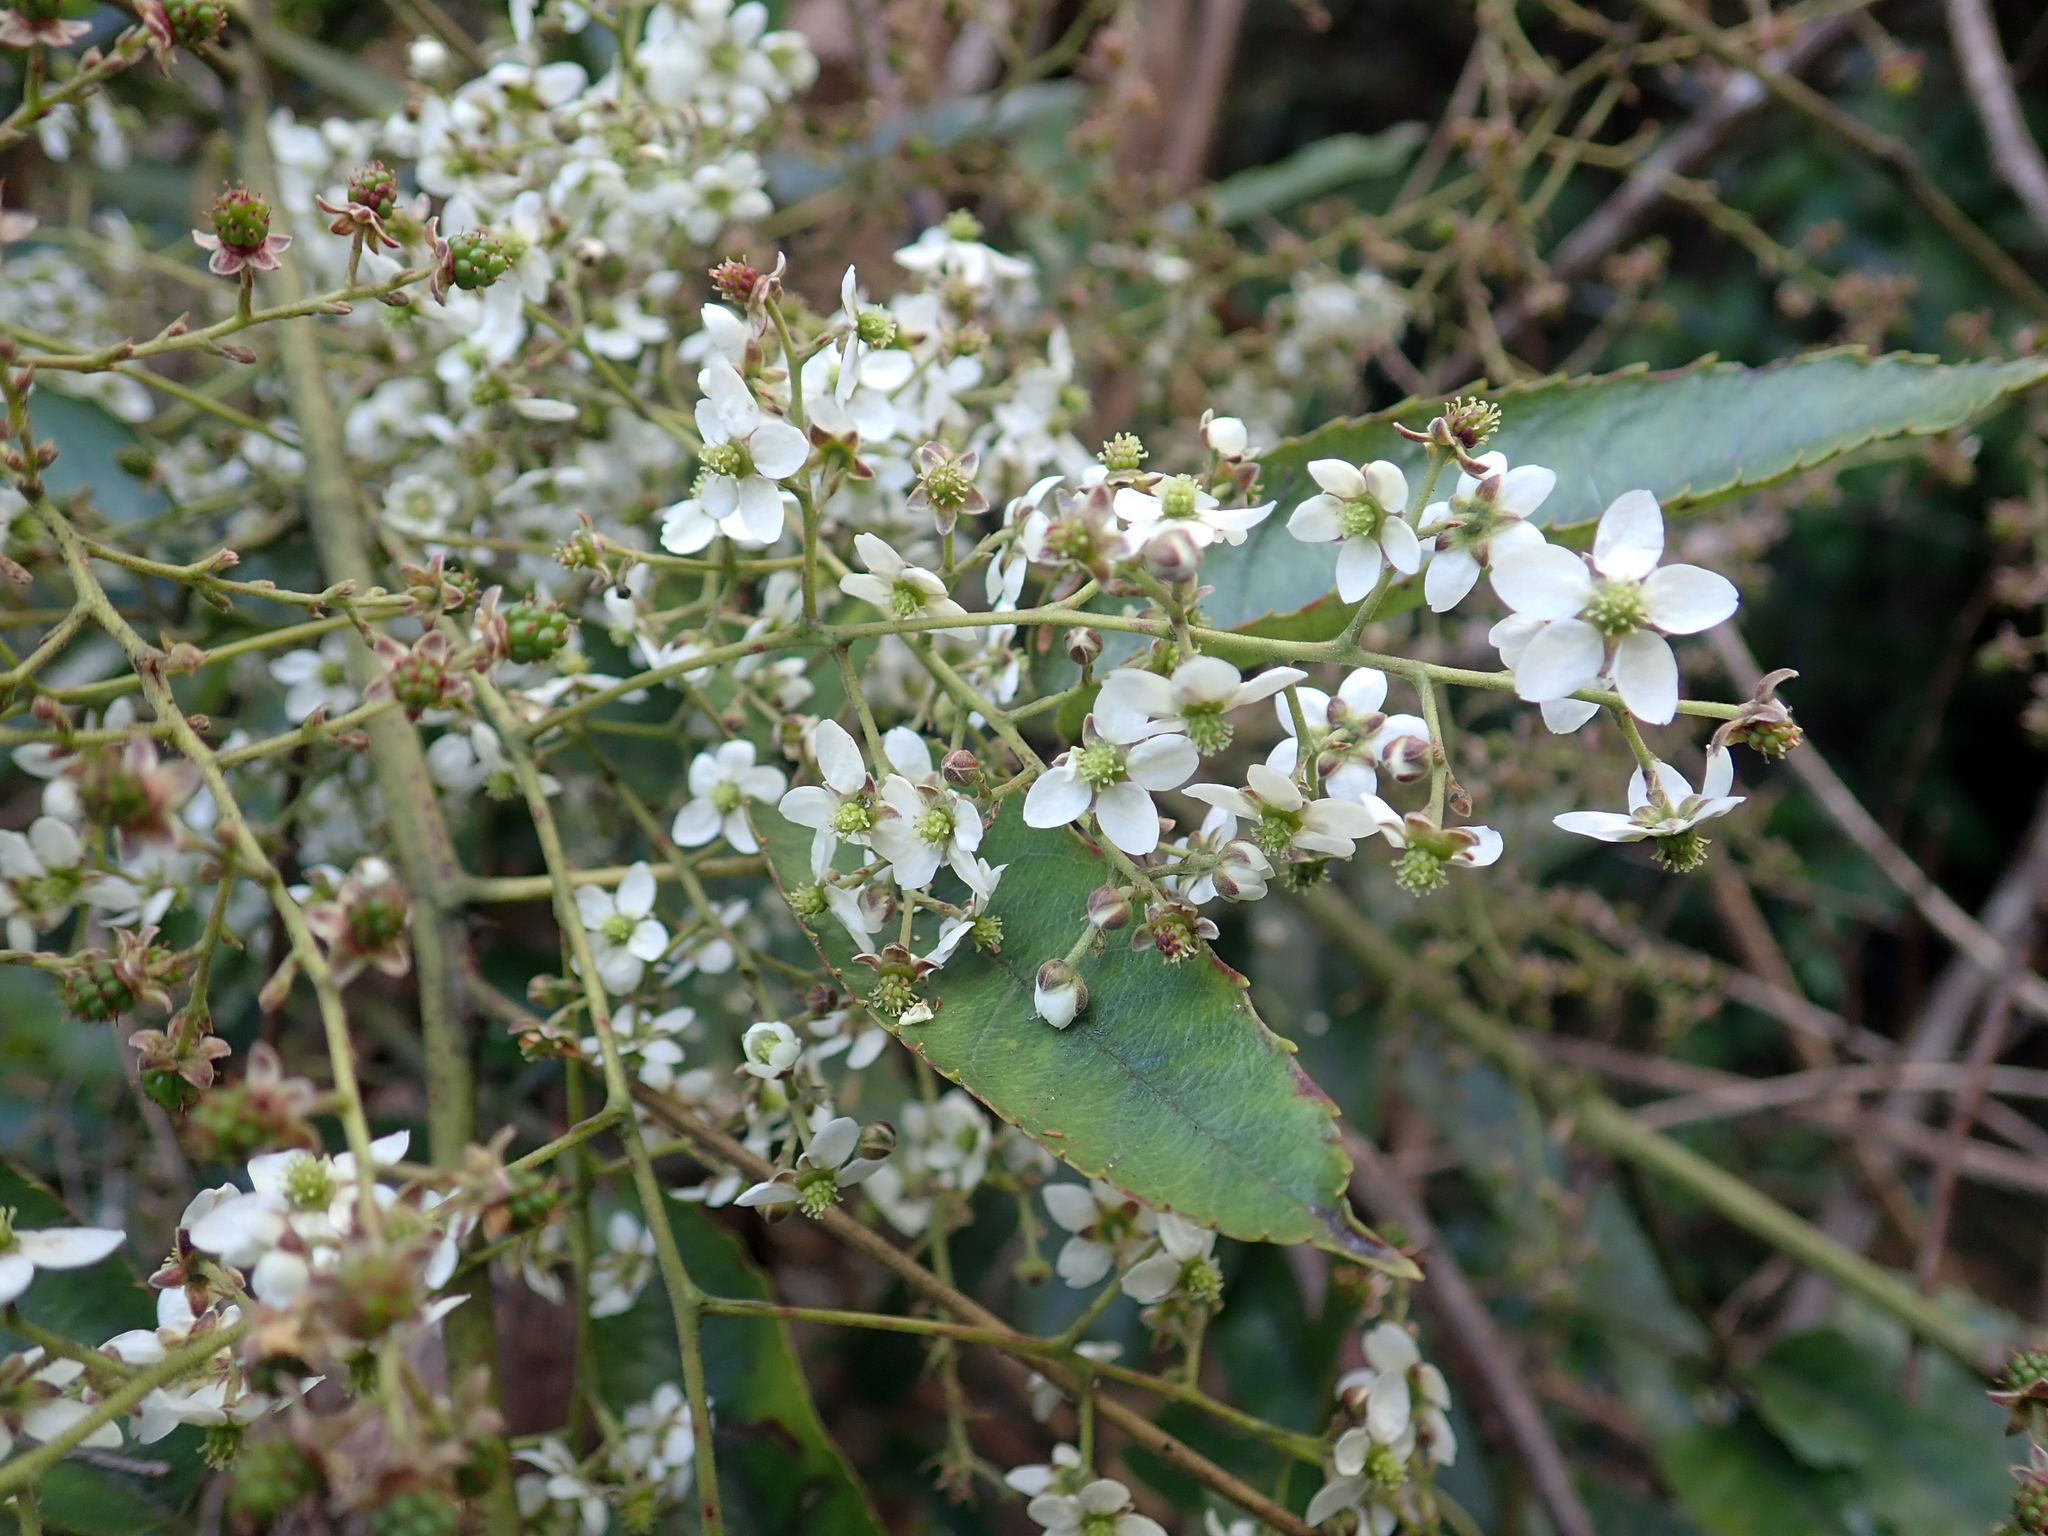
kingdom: Plantae
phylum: Tracheophyta
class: Magnoliopsida
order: Rosales
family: Rosaceae
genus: Rubus
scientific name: Rubus cissoides
